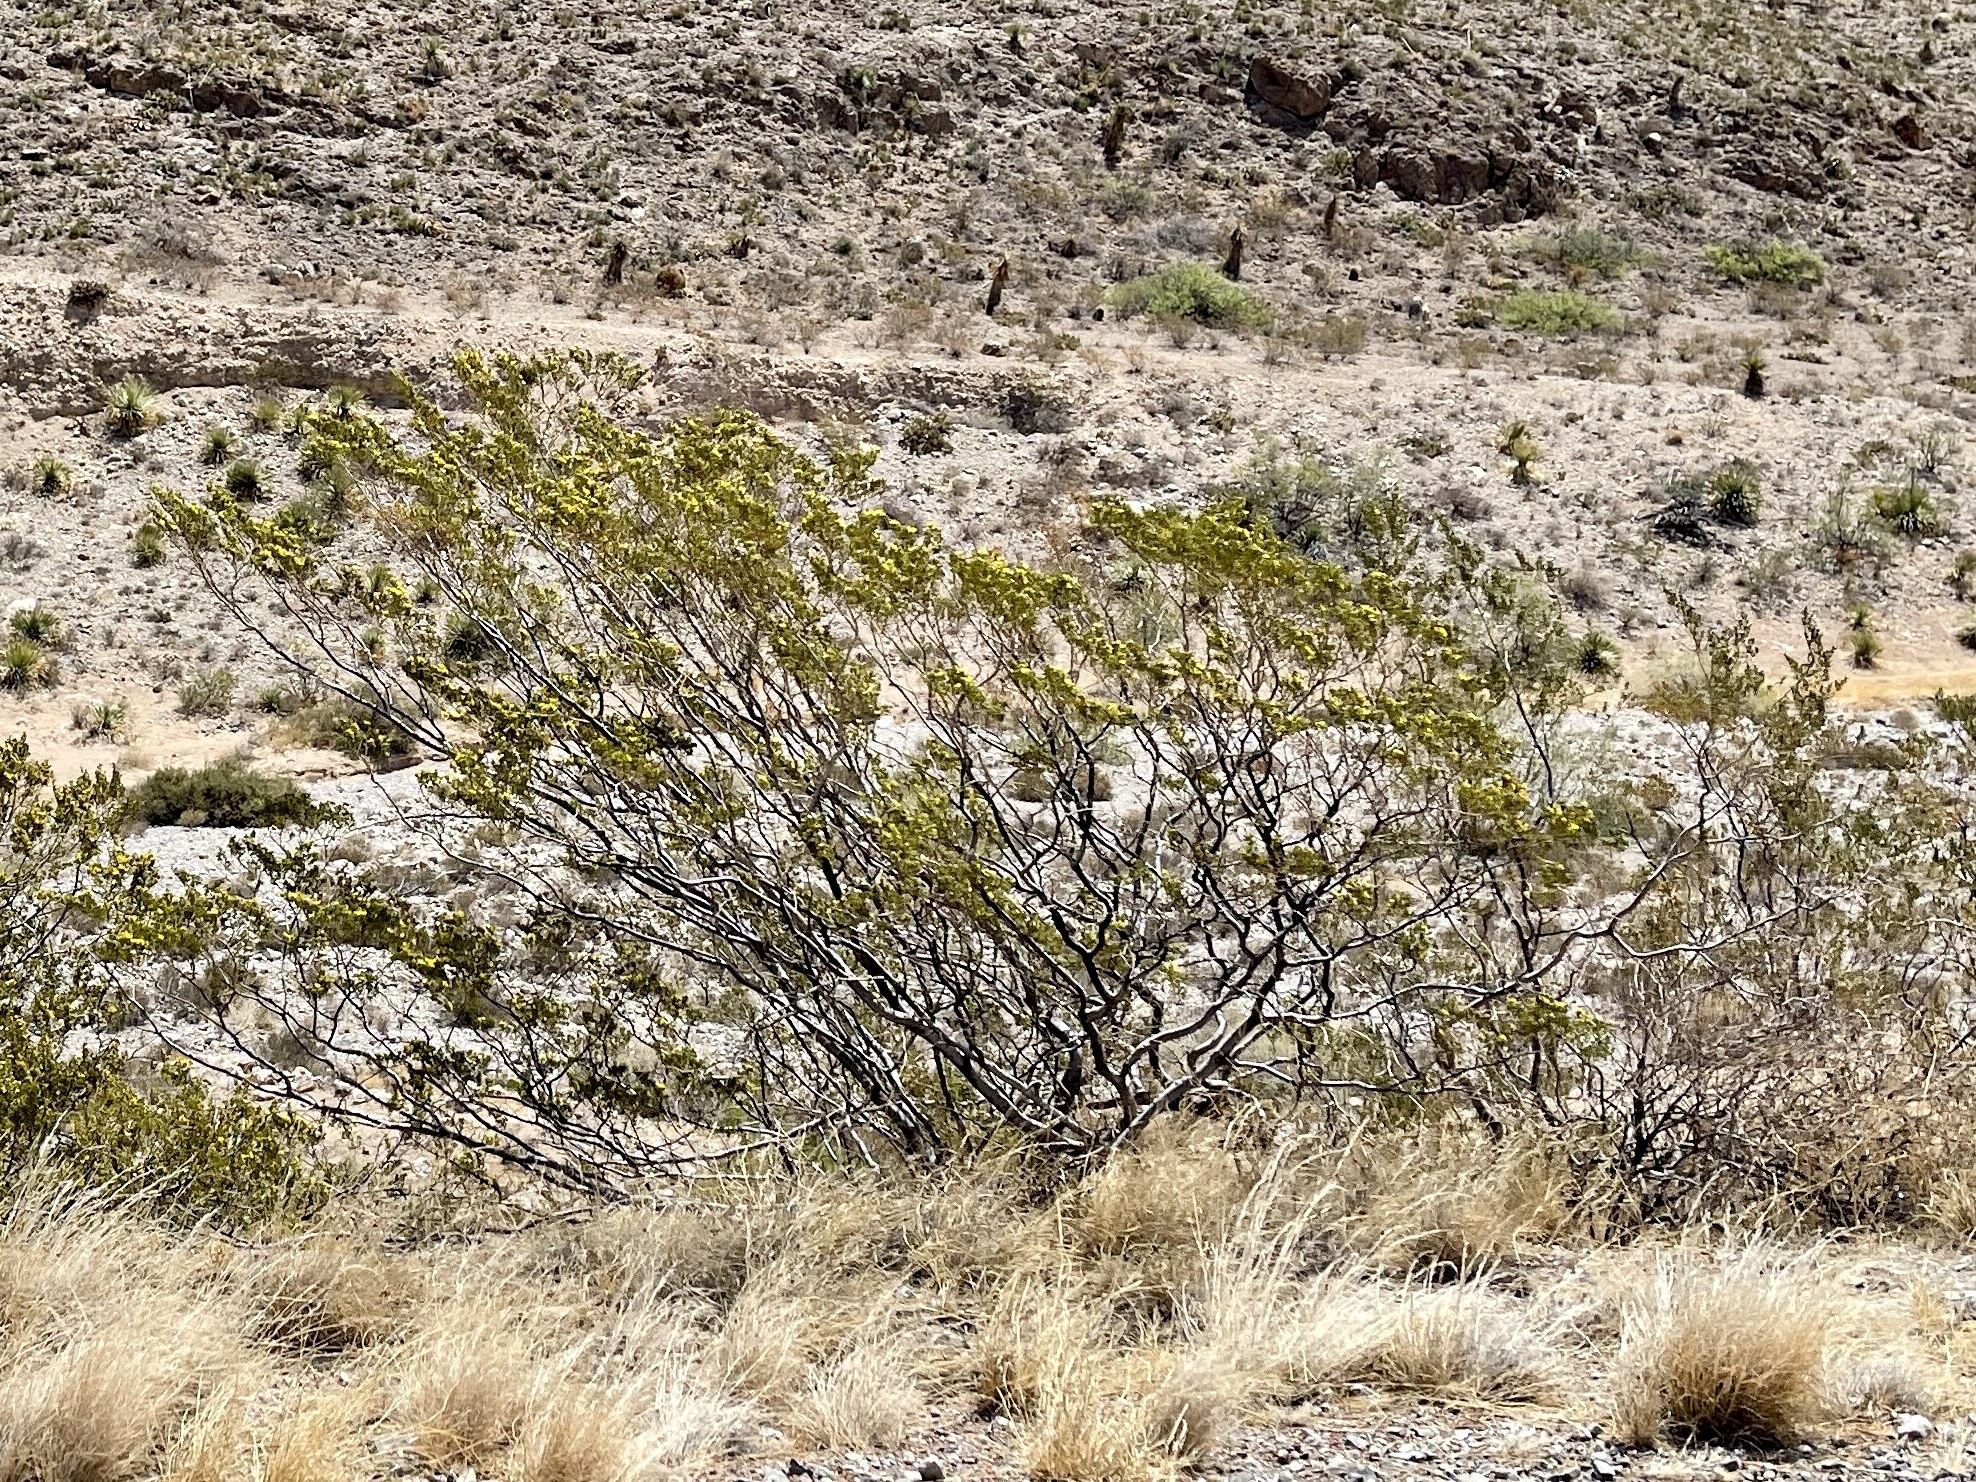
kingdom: Plantae
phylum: Tracheophyta
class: Magnoliopsida
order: Zygophyllales
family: Zygophyllaceae
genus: Larrea
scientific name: Larrea tridentata
